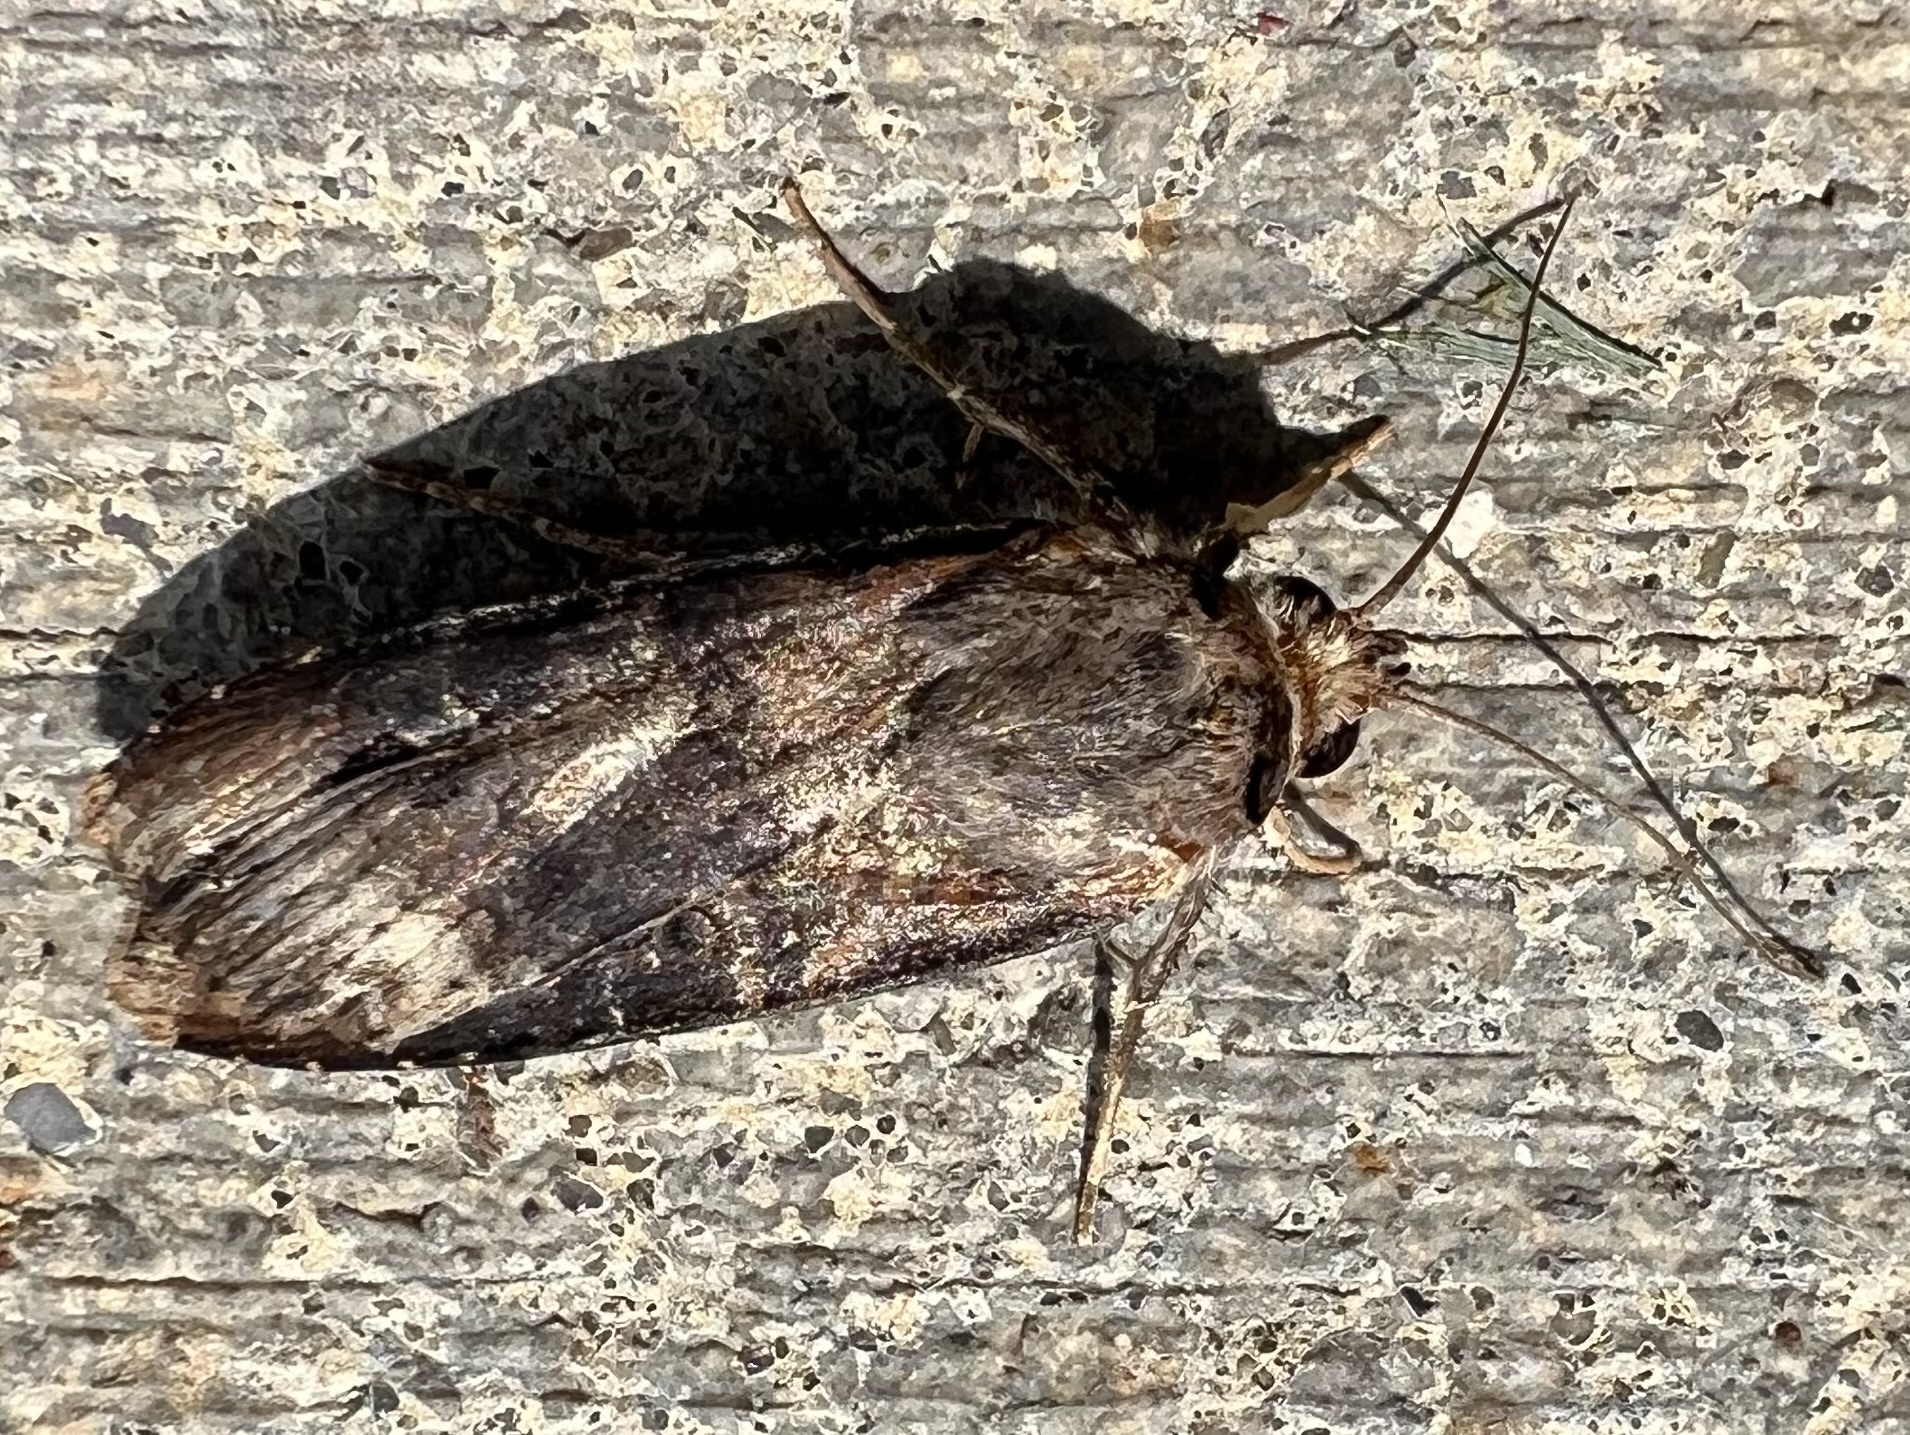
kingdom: Animalia
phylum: Arthropoda
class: Insecta
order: Lepidoptera
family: Noctuidae
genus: Agrotis
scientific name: Agrotis ipsilon
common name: Dark sword-grass
